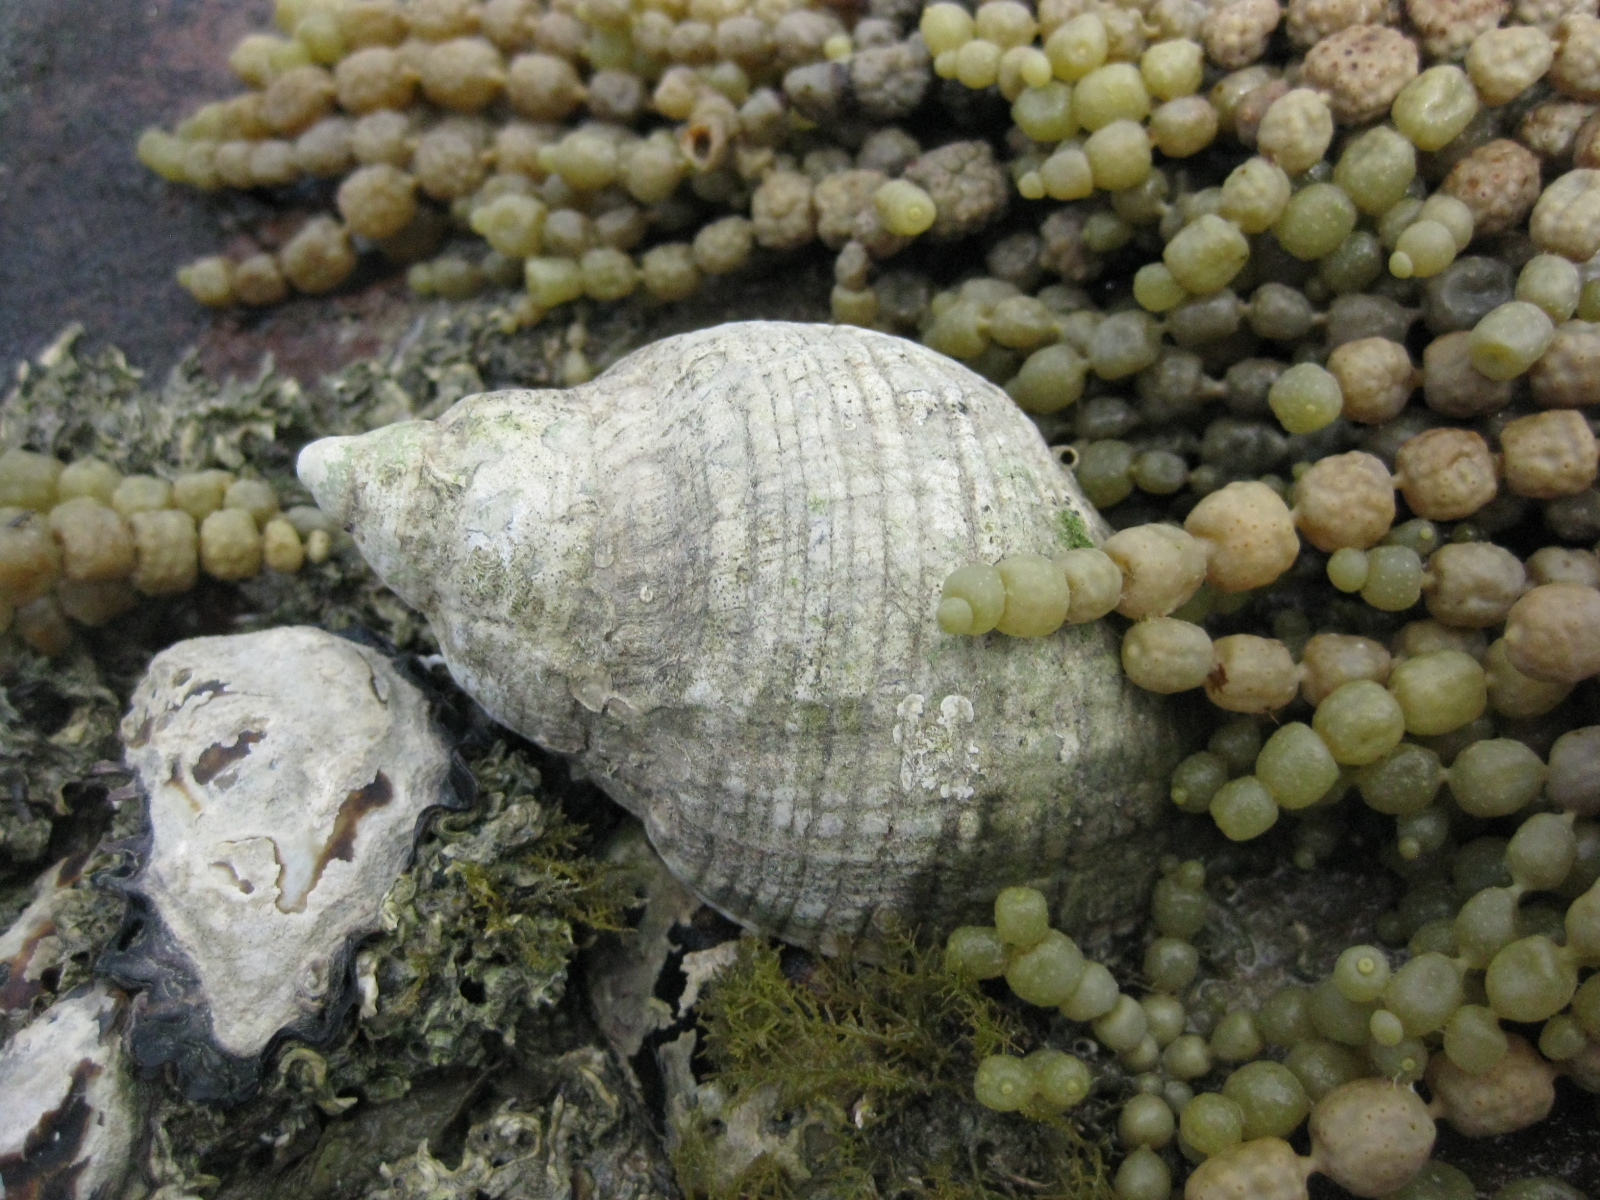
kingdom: Animalia
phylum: Mollusca
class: Gastropoda
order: Neogastropoda
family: Muricidae
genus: Dicathais
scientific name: Dicathais orbita
